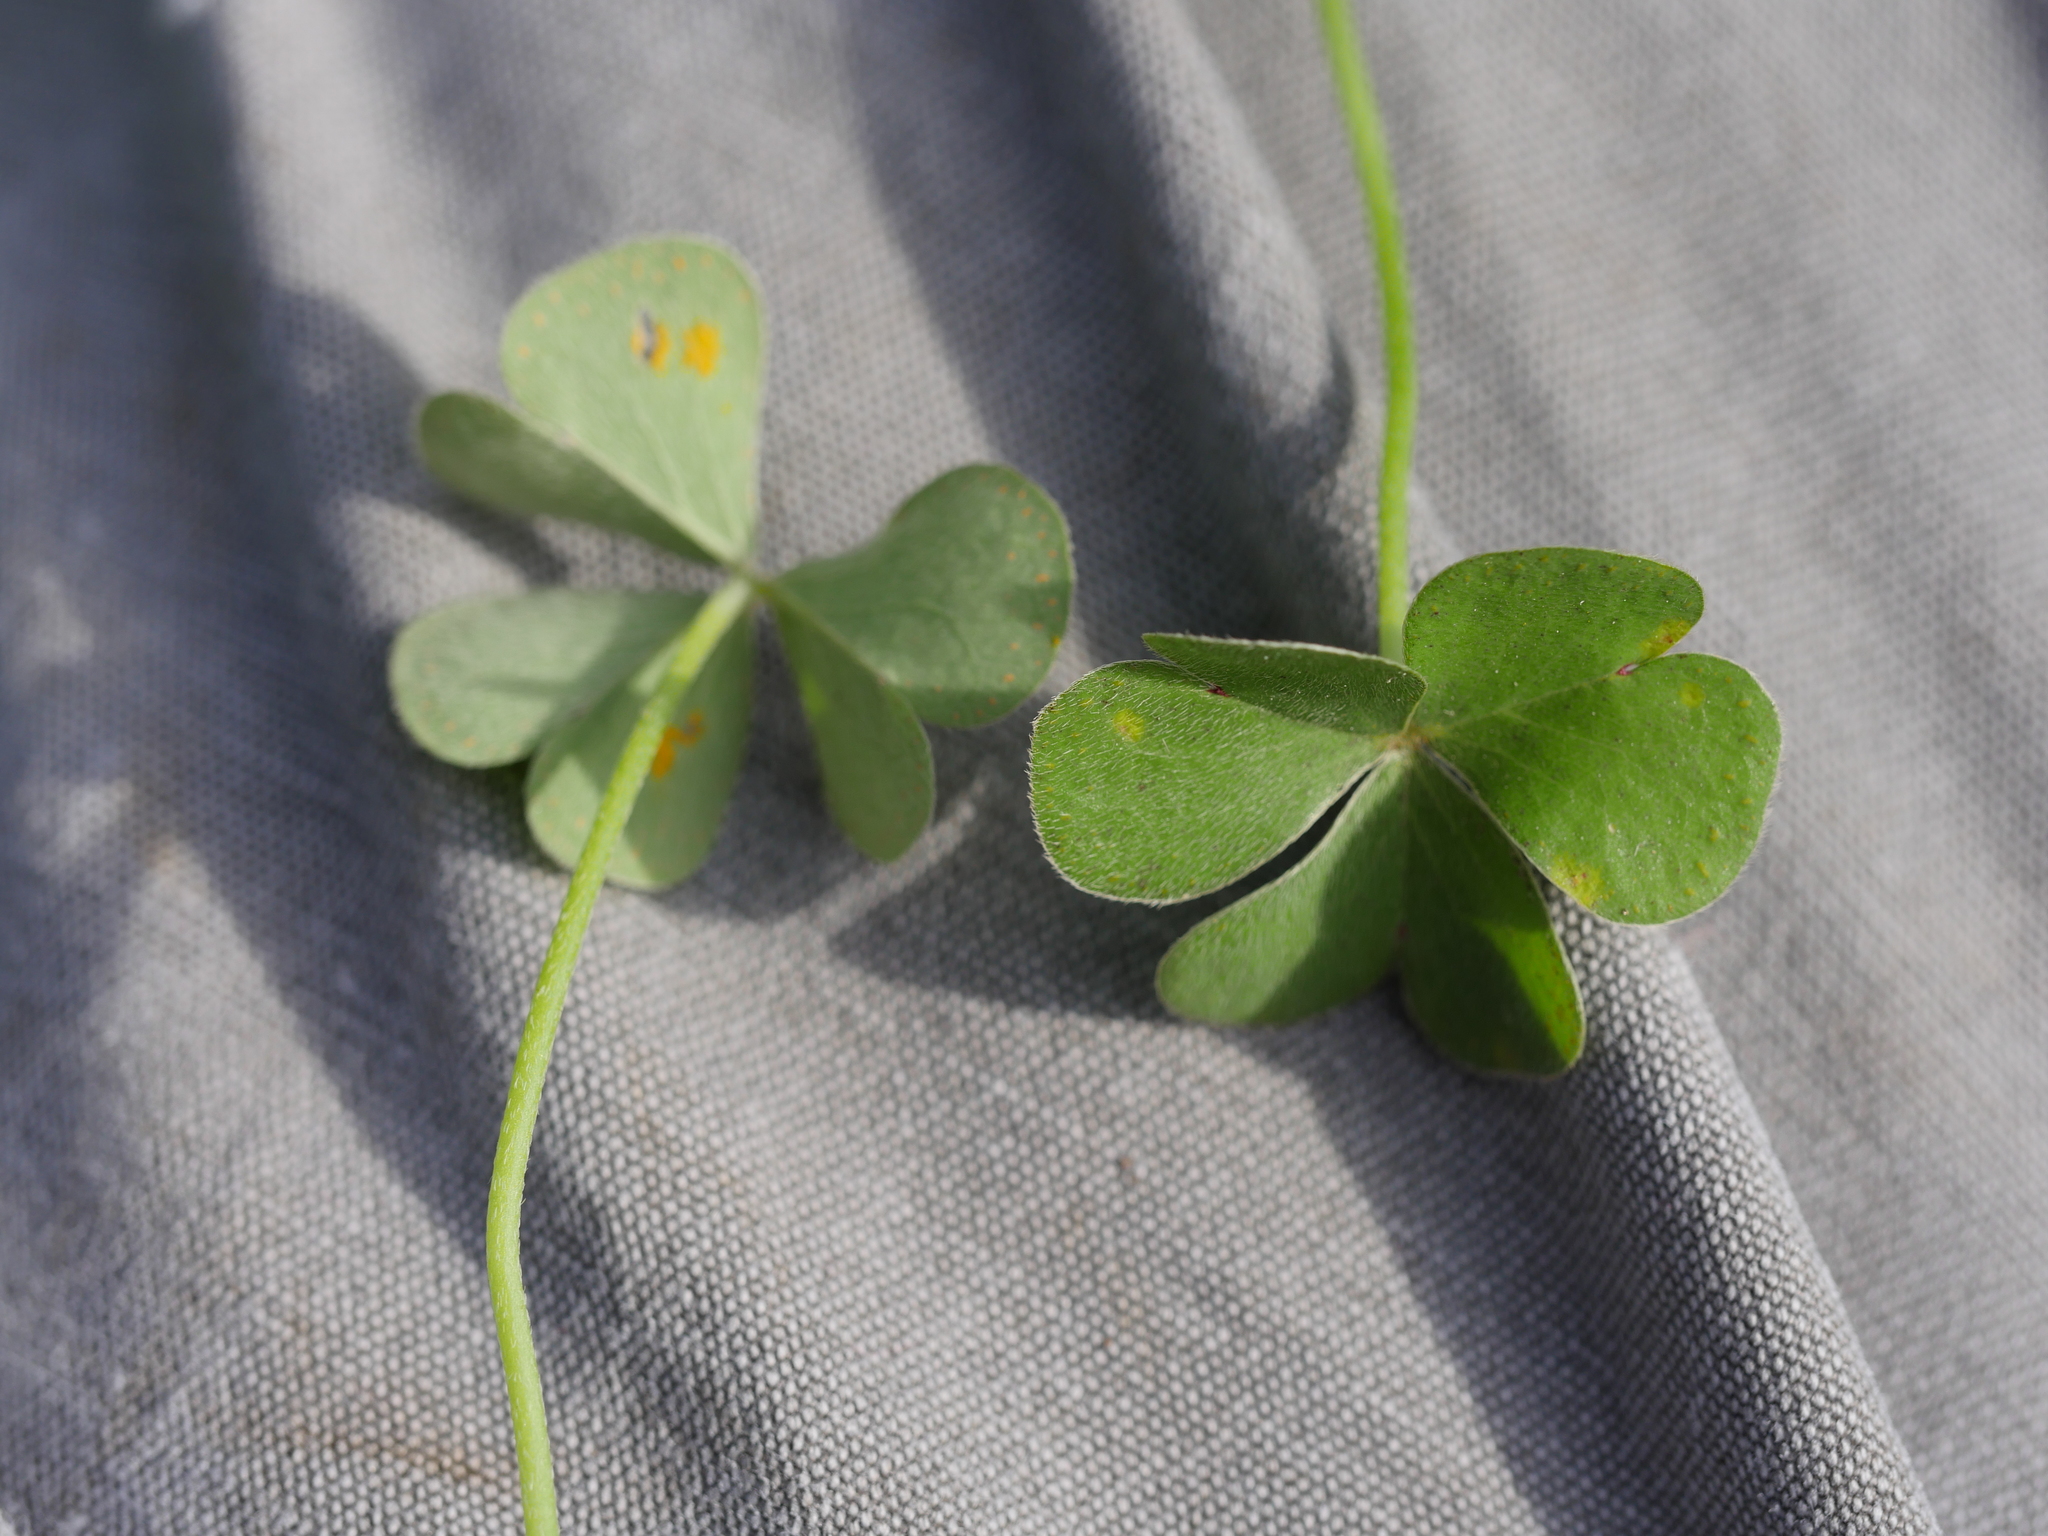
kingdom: Plantae
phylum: Tracheophyta
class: Magnoliopsida
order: Oxalidales
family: Oxalidaceae
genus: Oxalis
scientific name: Oxalis articulata
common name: Pink-sorrel
